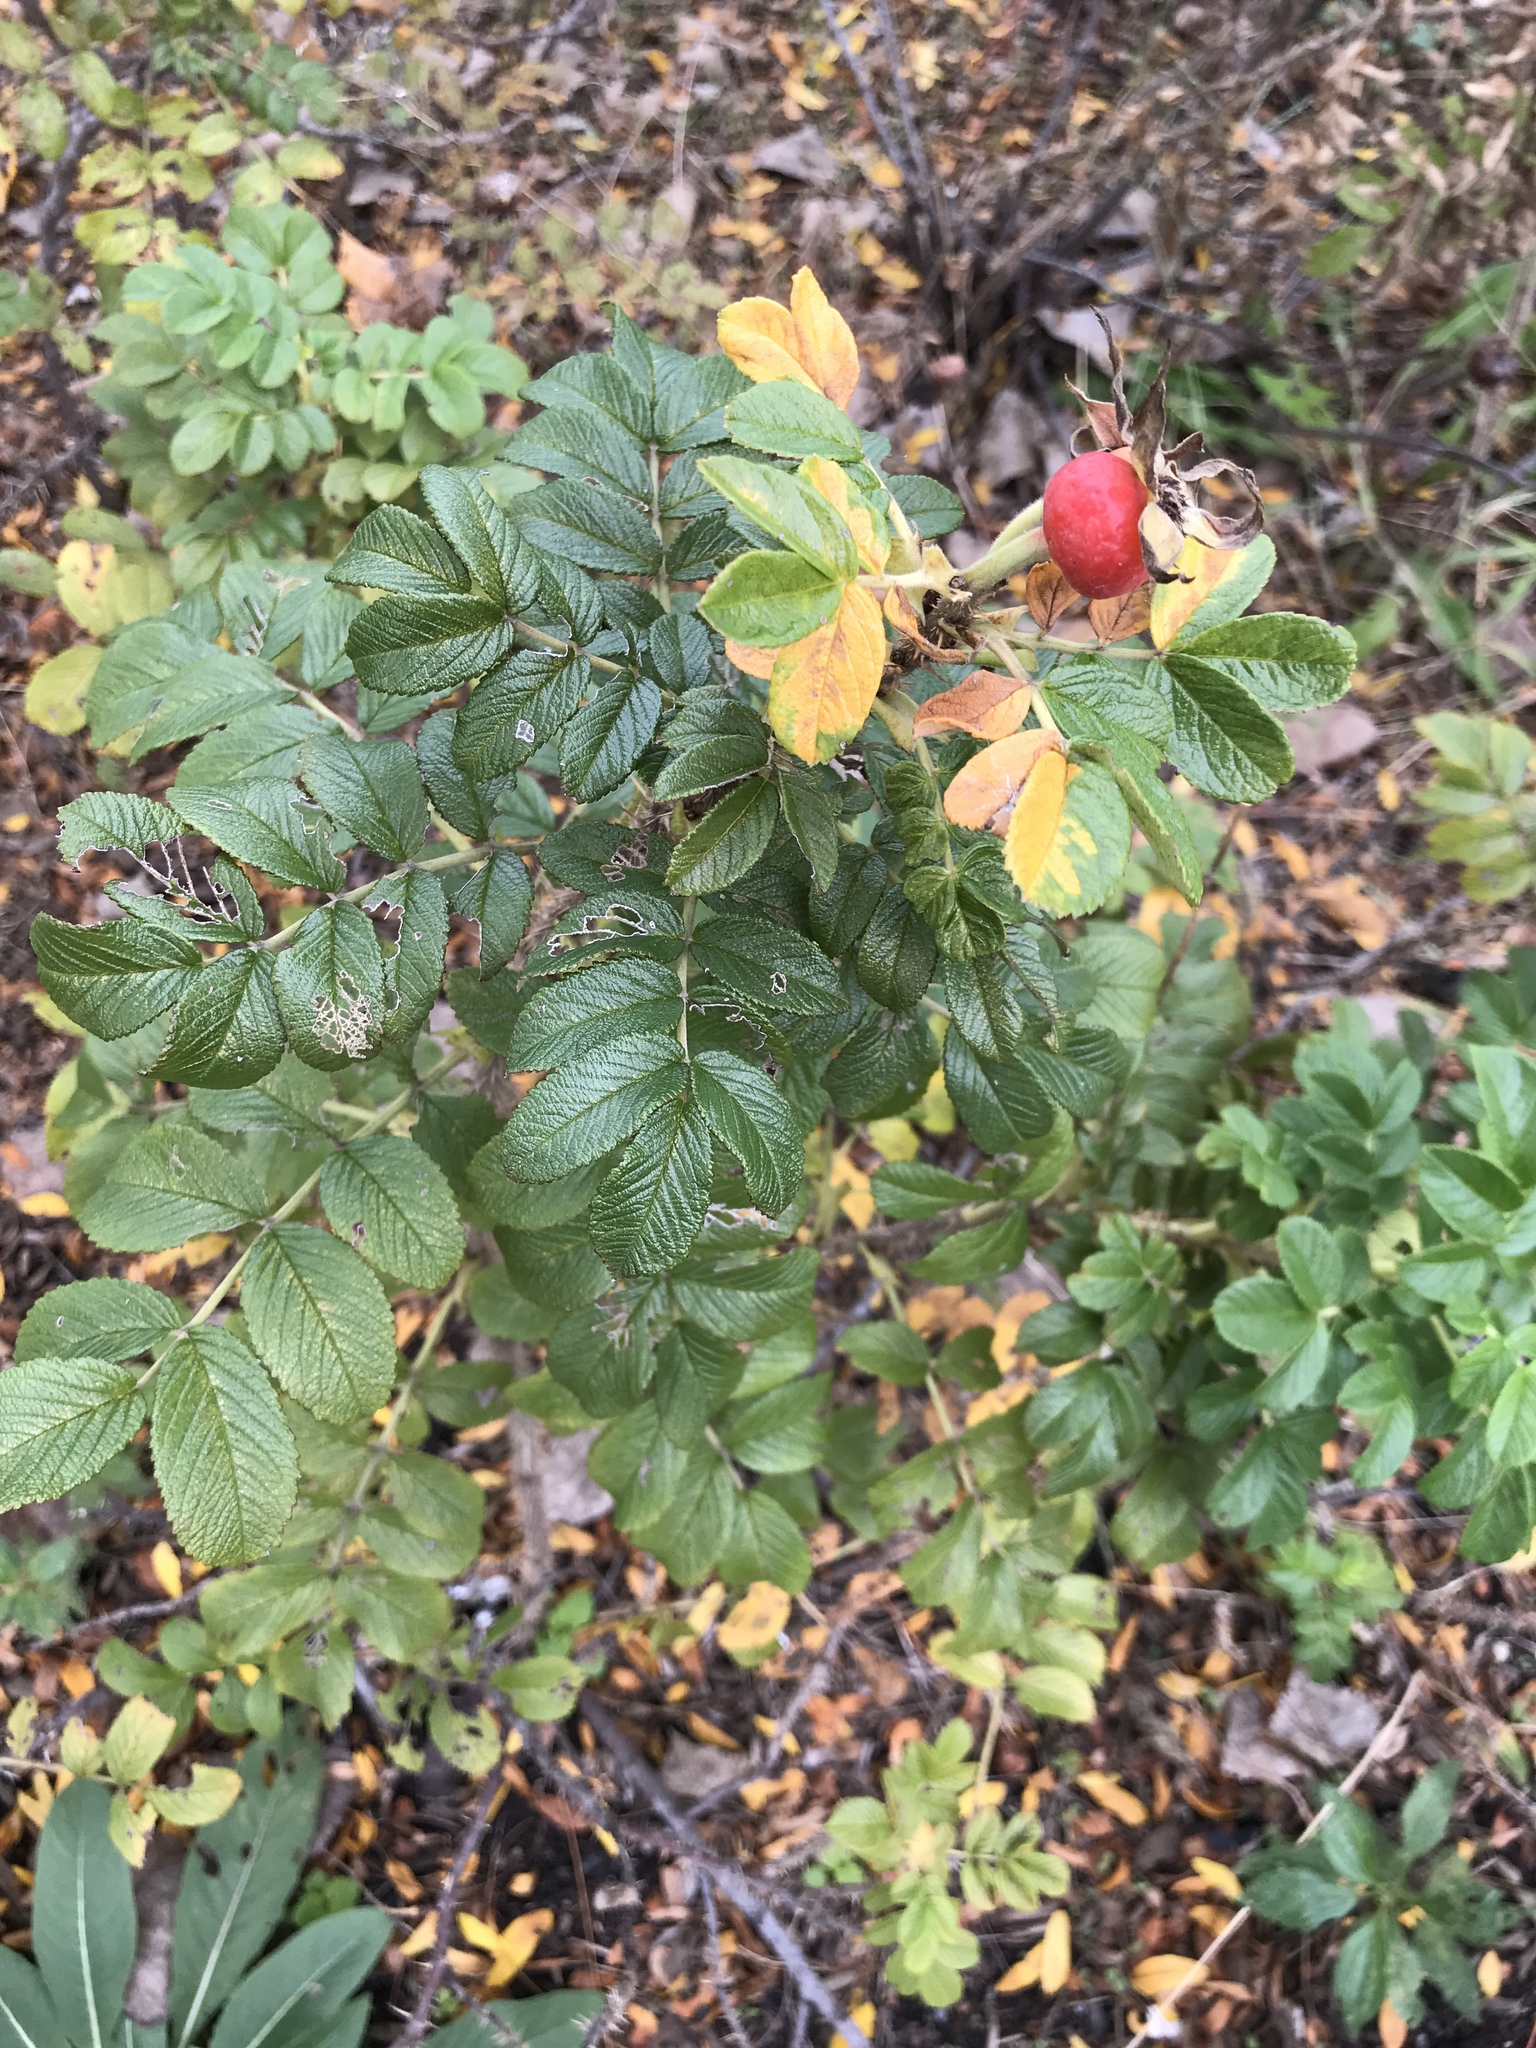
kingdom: Plantae
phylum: Tracheophyta
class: Magnoliopsida
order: Rosales
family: Rosaceae
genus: Rosa
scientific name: Rosa rugosa
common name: Japanese rose
